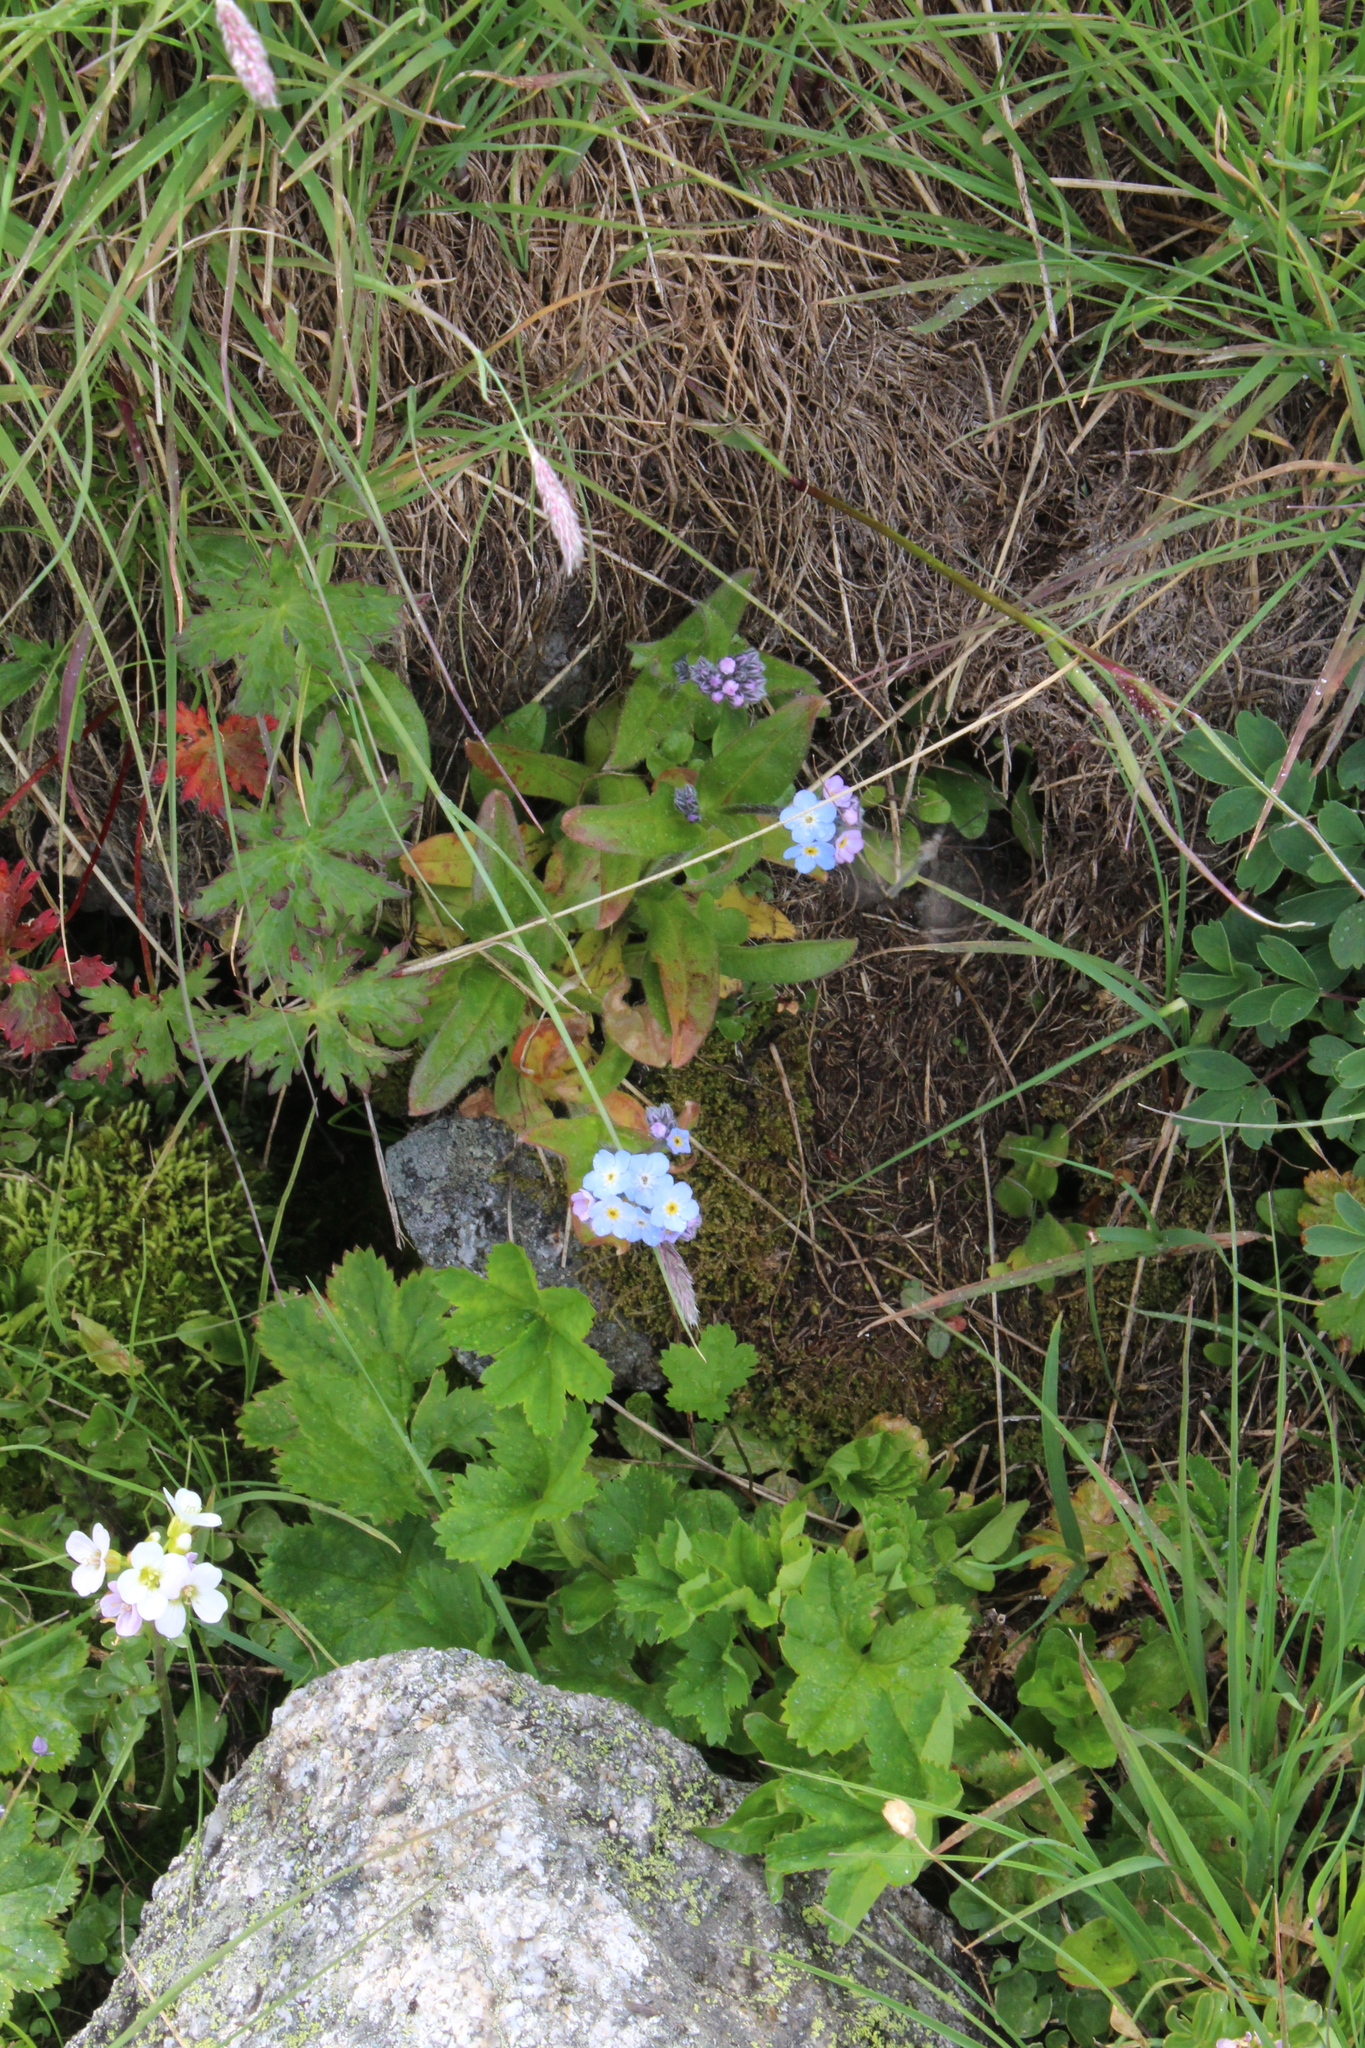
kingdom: Plantae
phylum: Tracheophyta
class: Magnoliopsida
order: Boraginales
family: Boraginaceae
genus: Myosotis
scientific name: Myosotis alpestris
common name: Alpine forget-me-not
